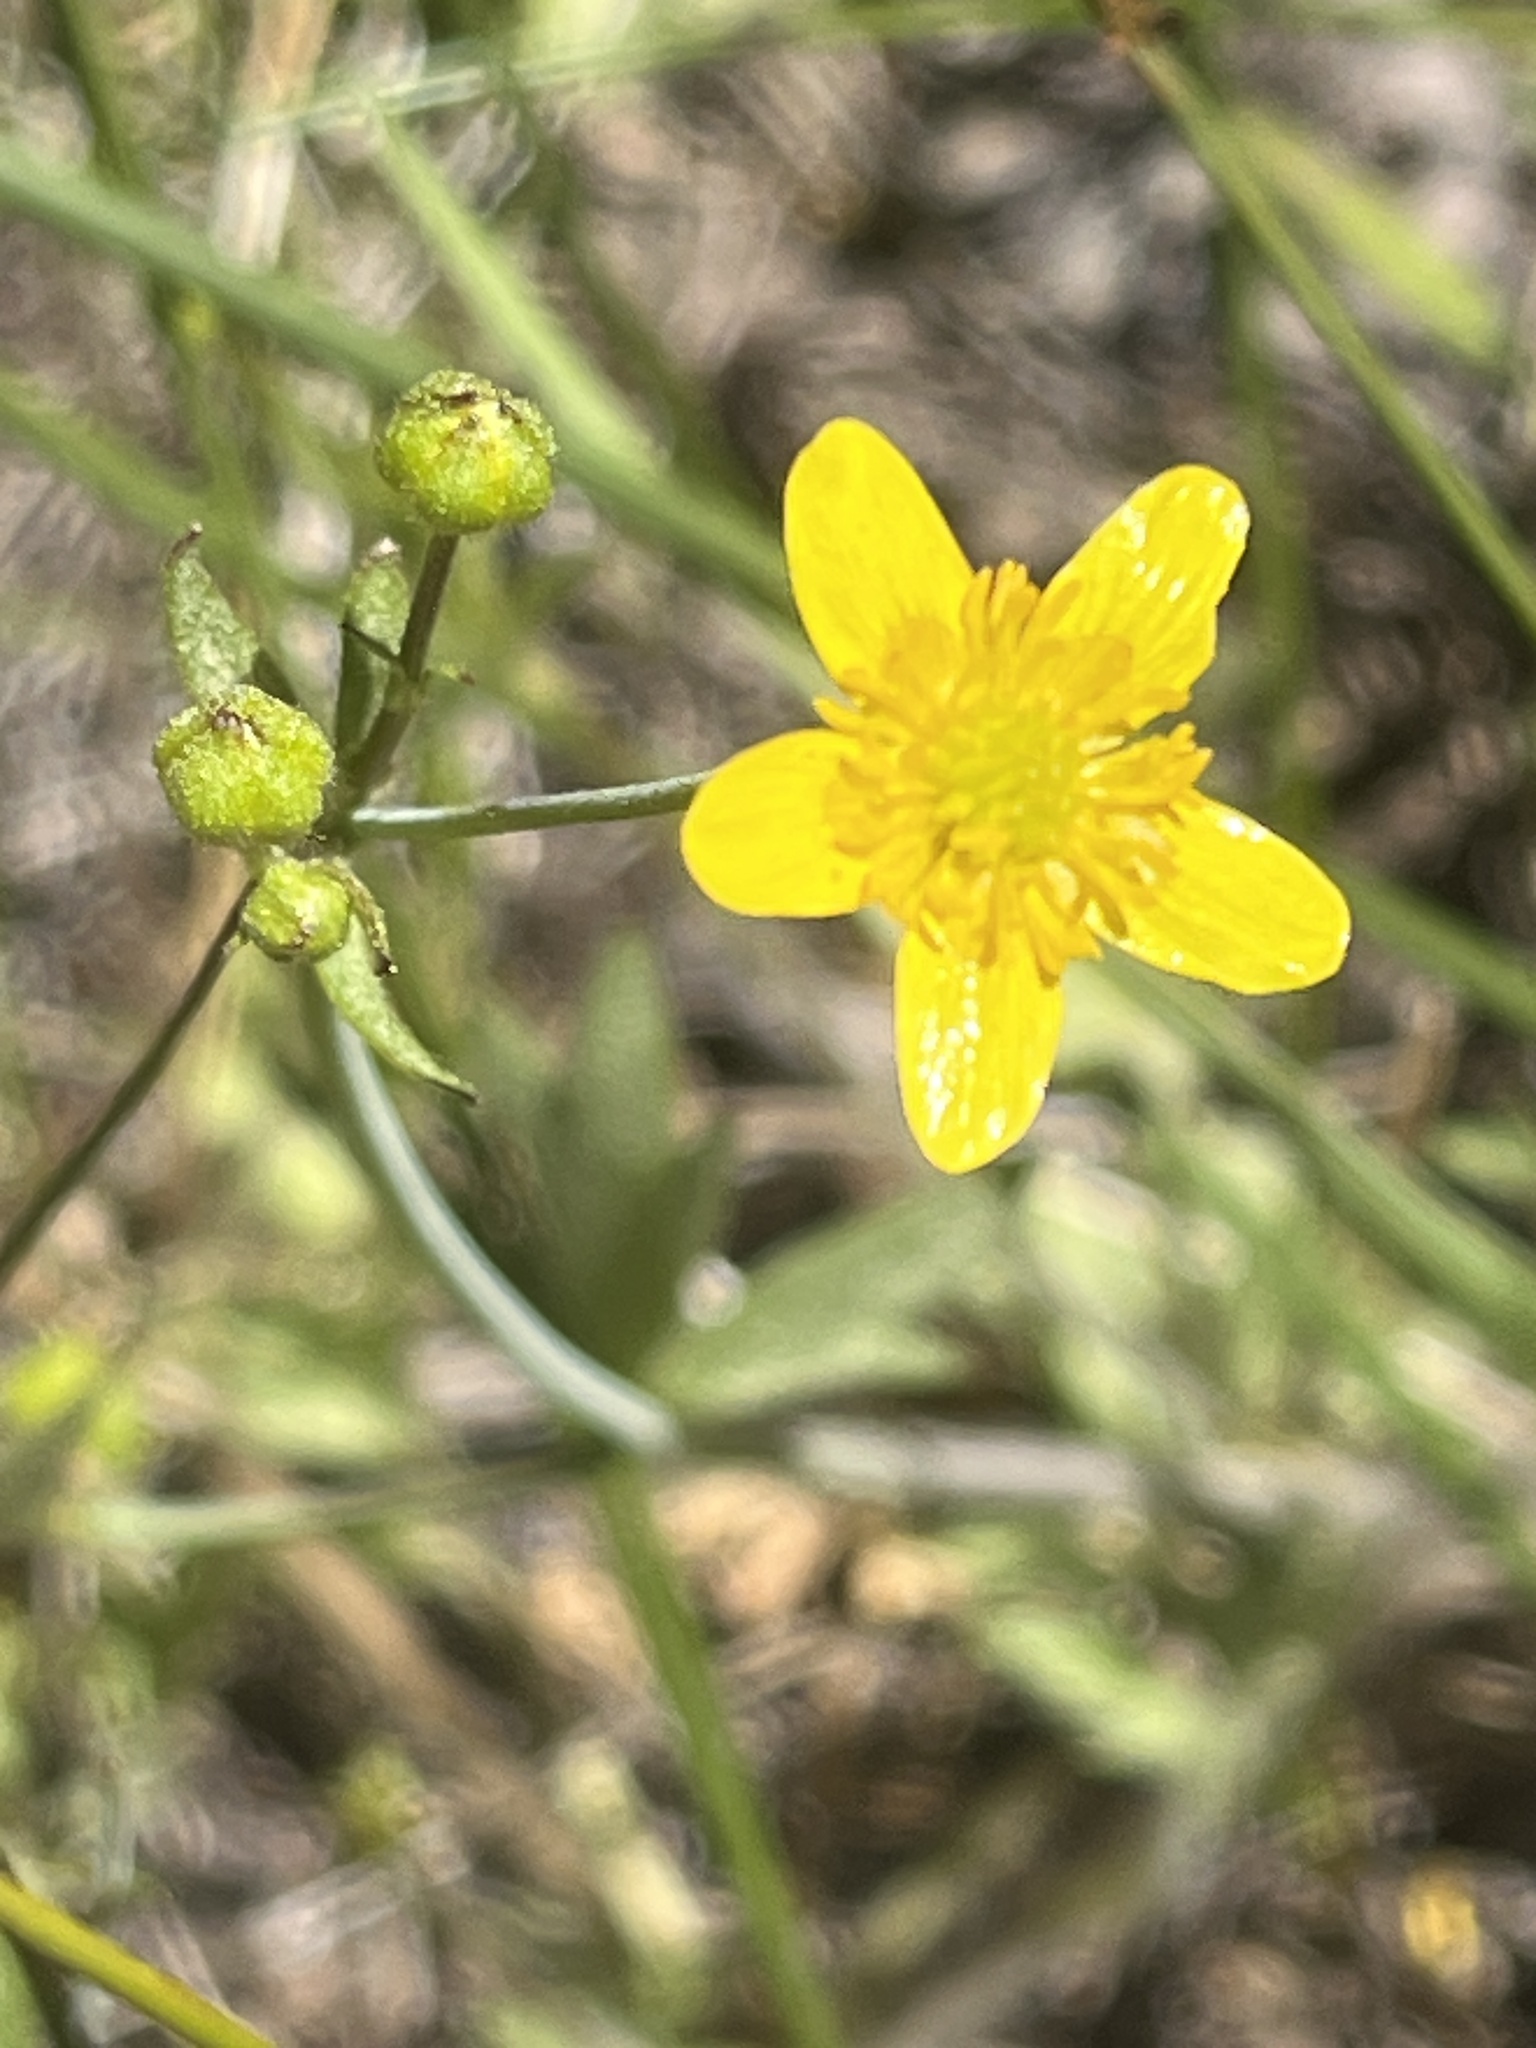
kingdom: Plantae
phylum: Tracheophyta
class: Magnoliopsida
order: Ranunculales
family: Ranunculaceae
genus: Ranunculus
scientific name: Ranunculus occidentalis
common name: Western buttercup
